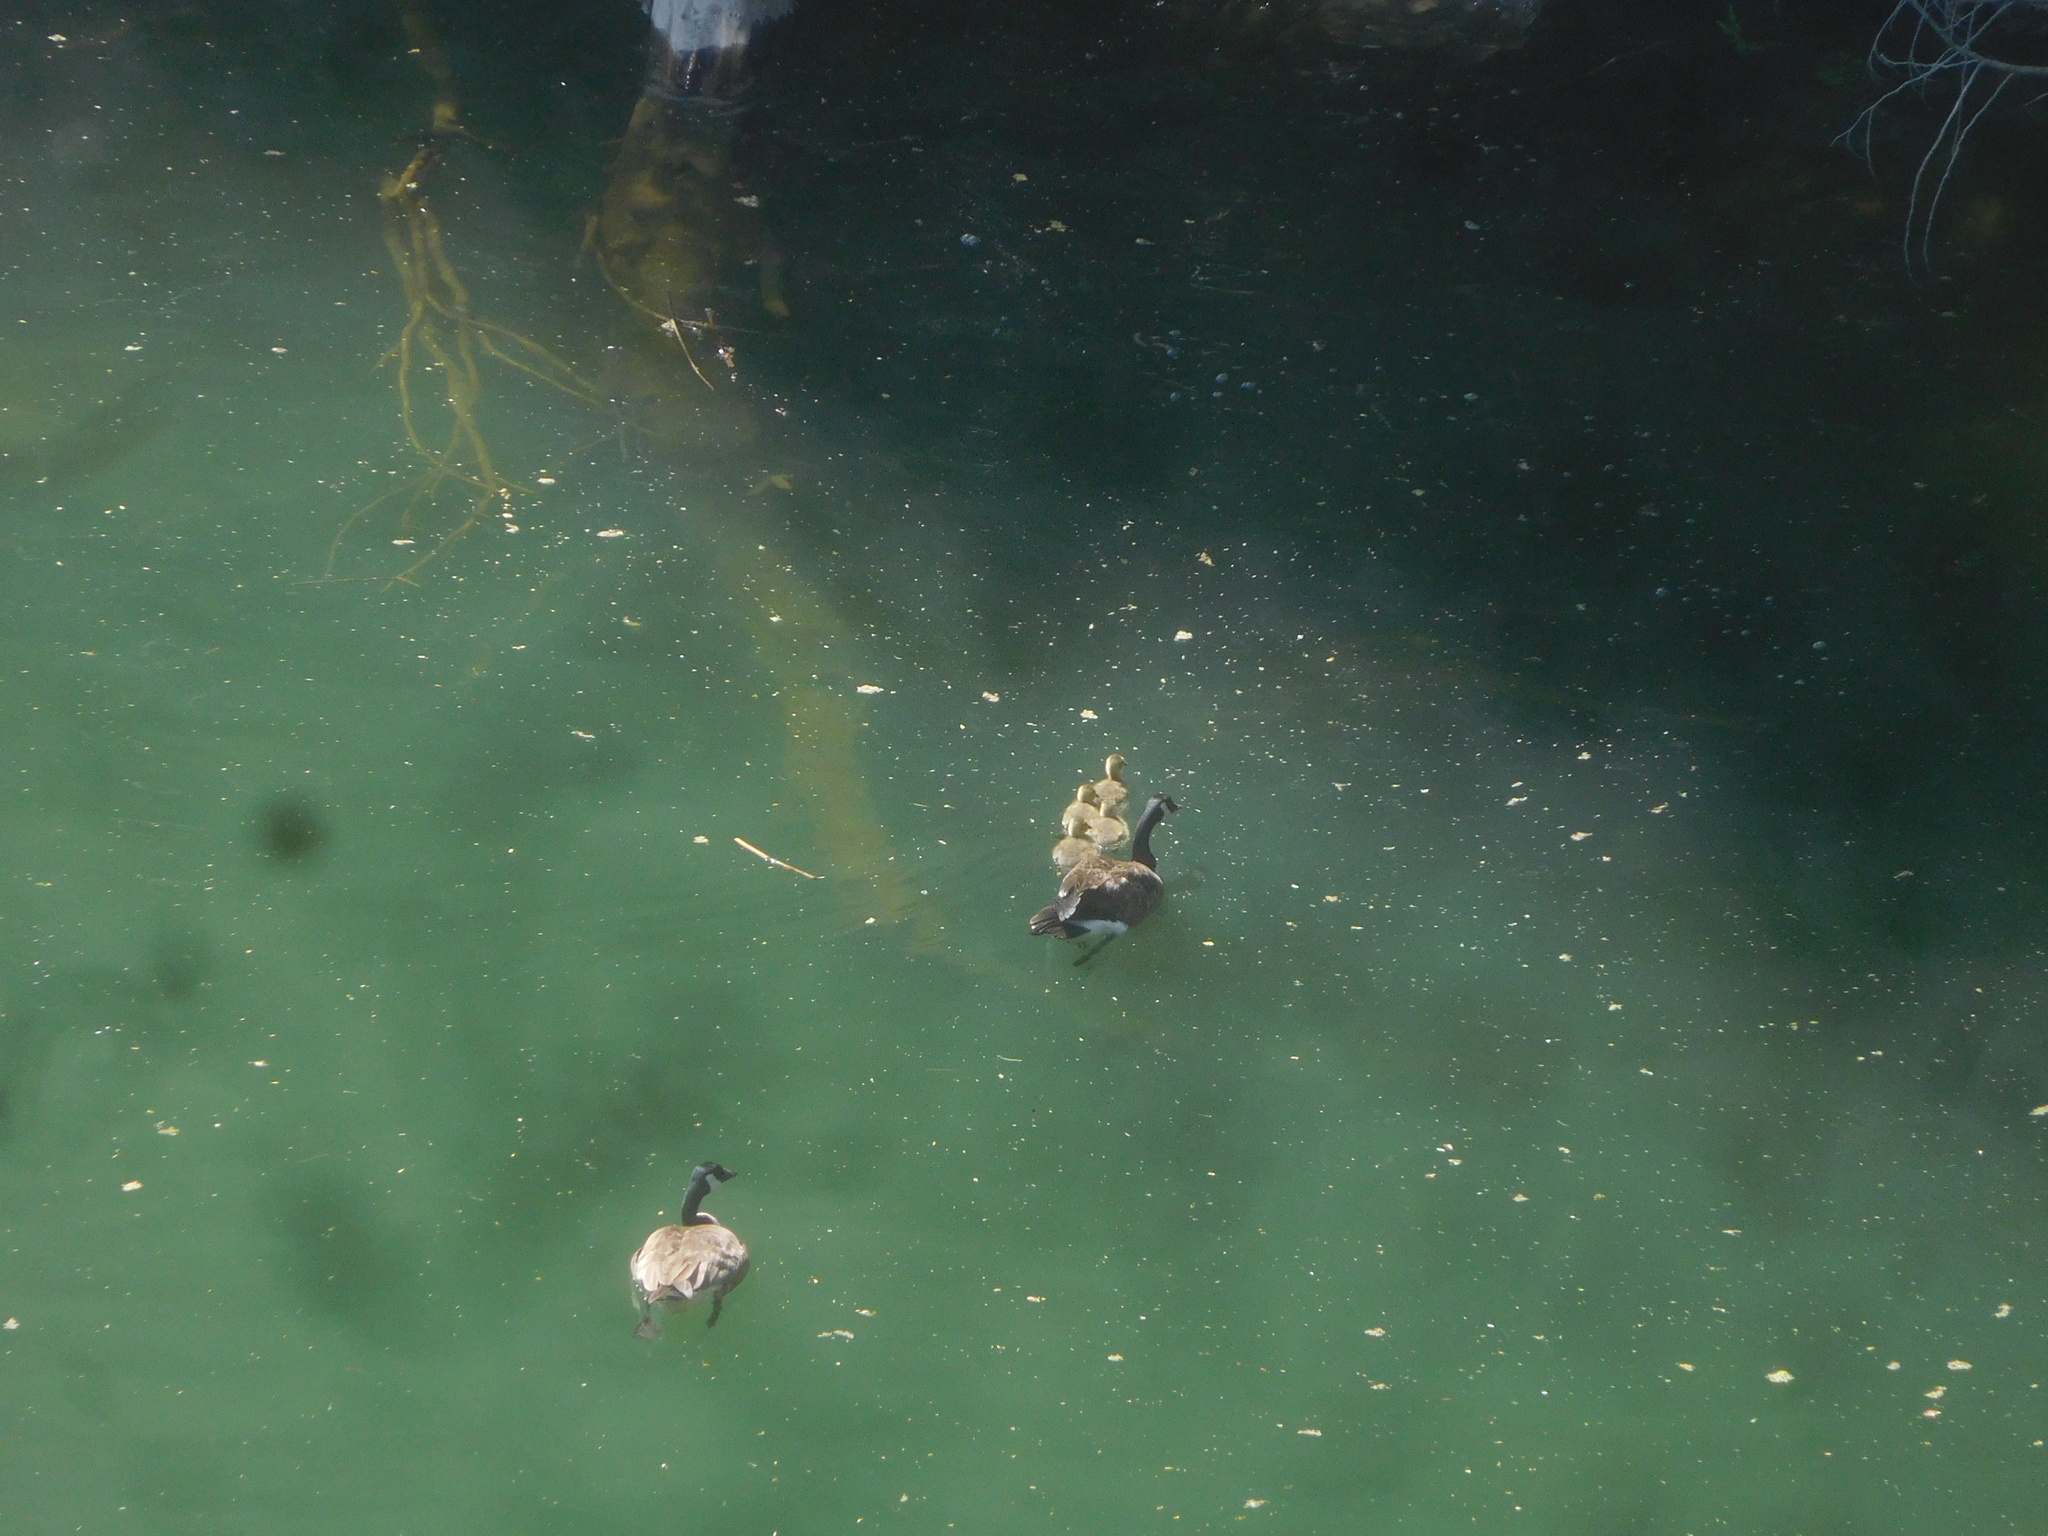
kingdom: Animalia
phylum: Chordata
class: Aves
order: Anseriformes
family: Anatidae
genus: Branta
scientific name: Branta canadensis
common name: Canada goose
